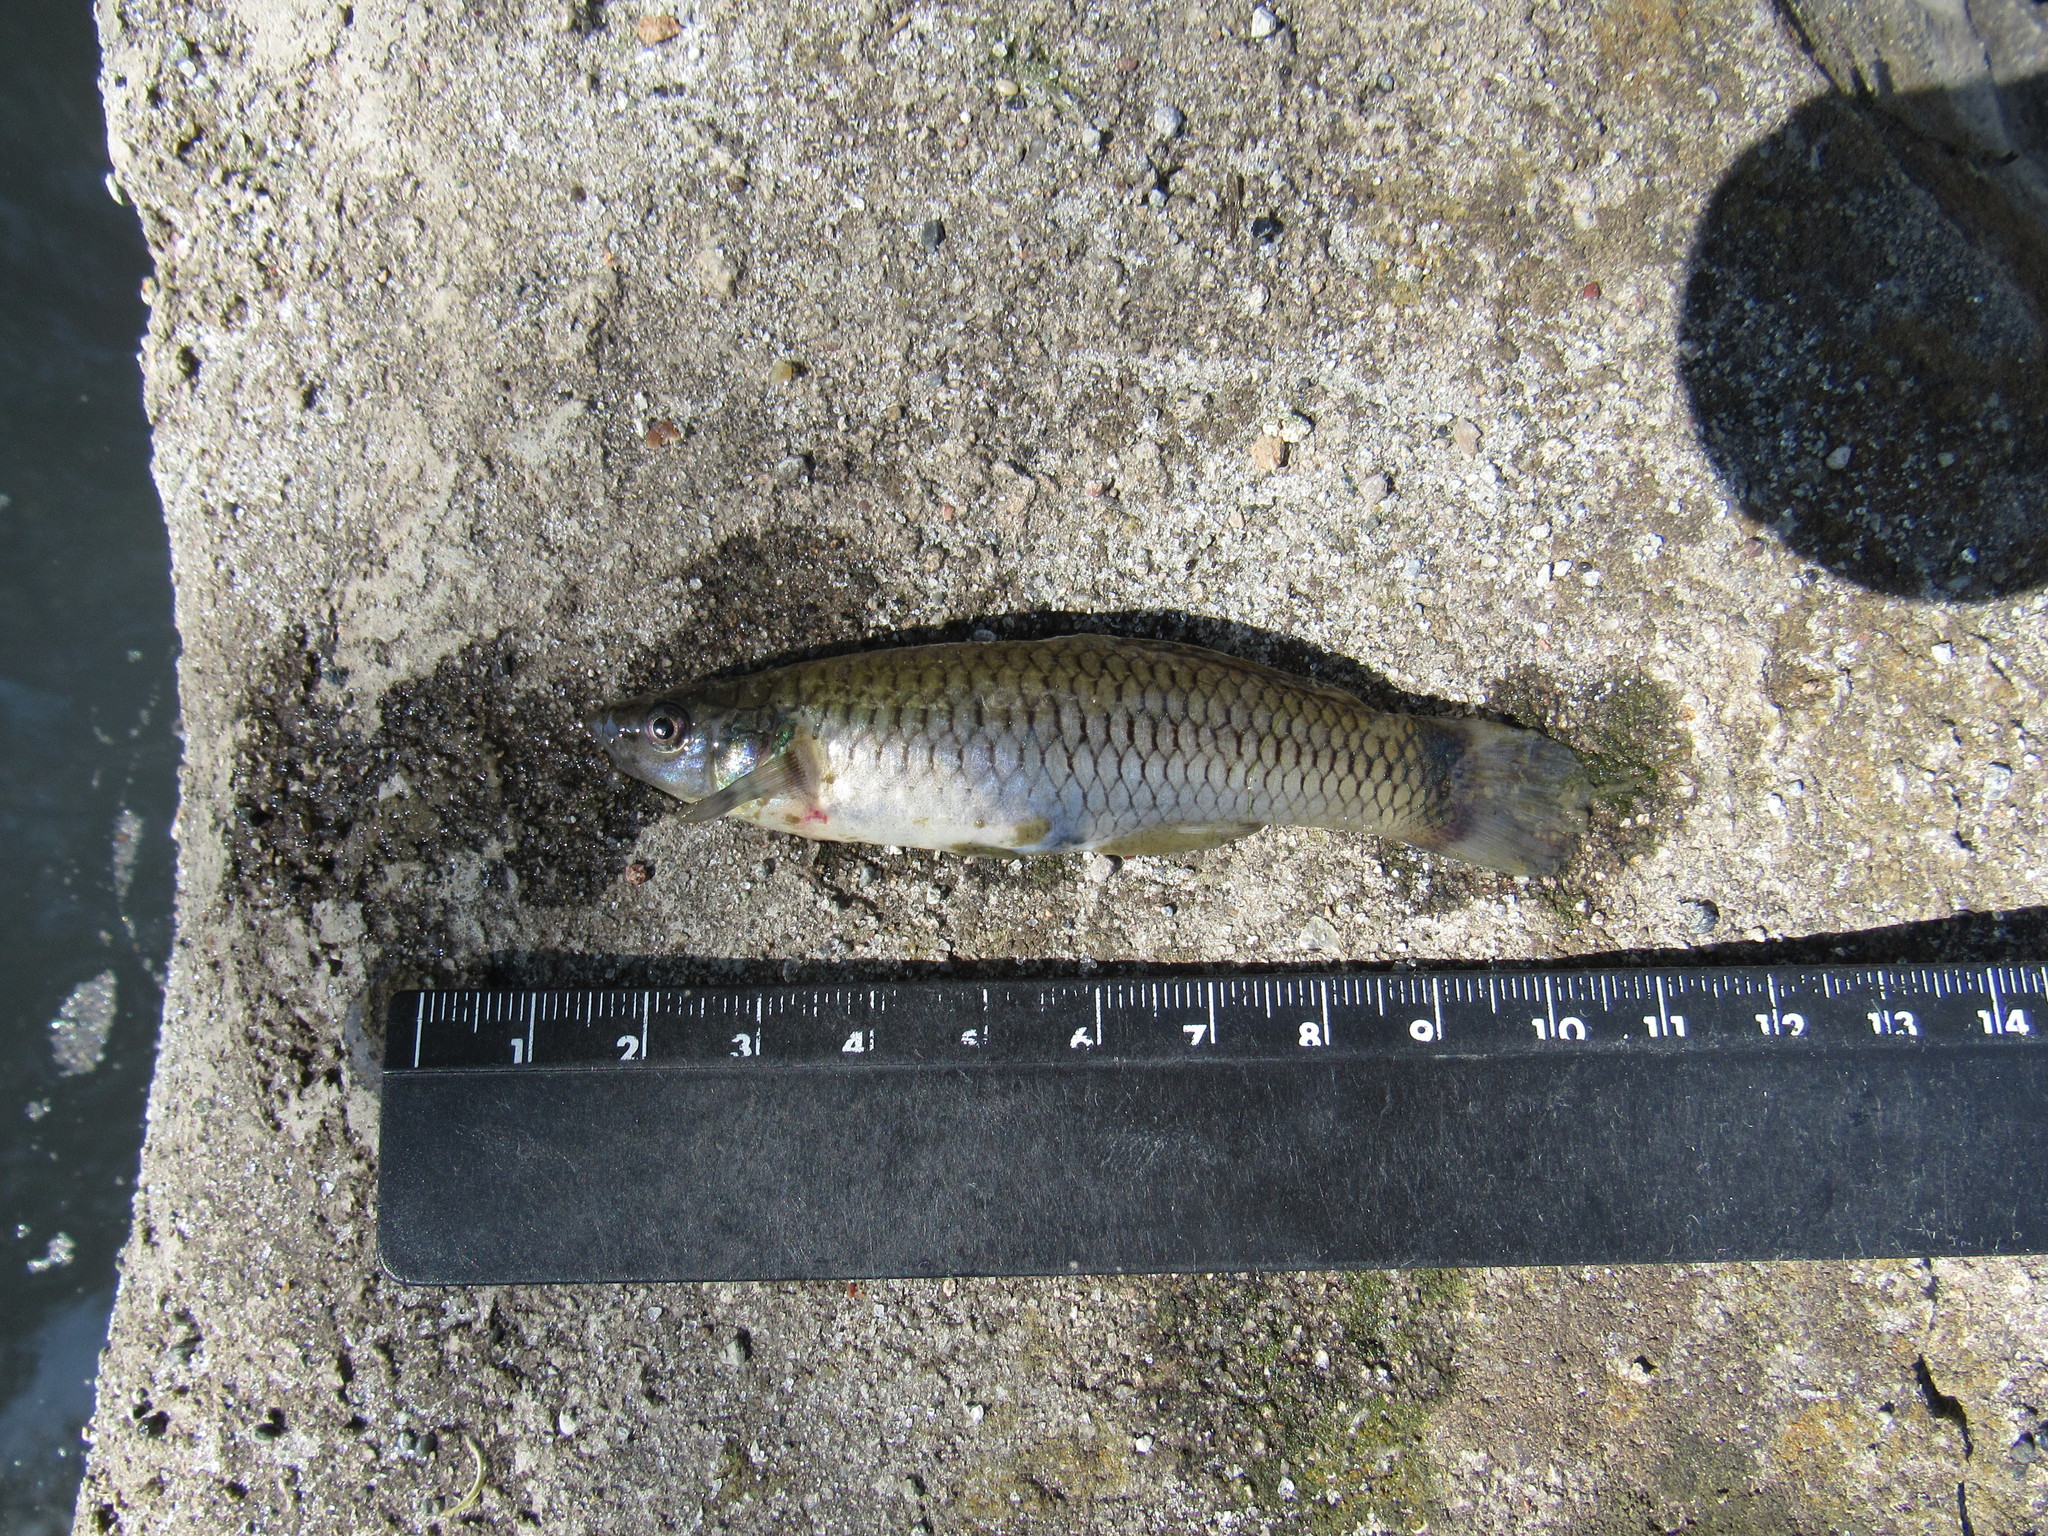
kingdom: Animalia
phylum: Chordata
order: Cyprinodontiformes
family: Poeciliidae
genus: Pseudoxiphophorus
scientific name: Pseudoxiphophorus bimaculatus
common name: Twospot livebearer
